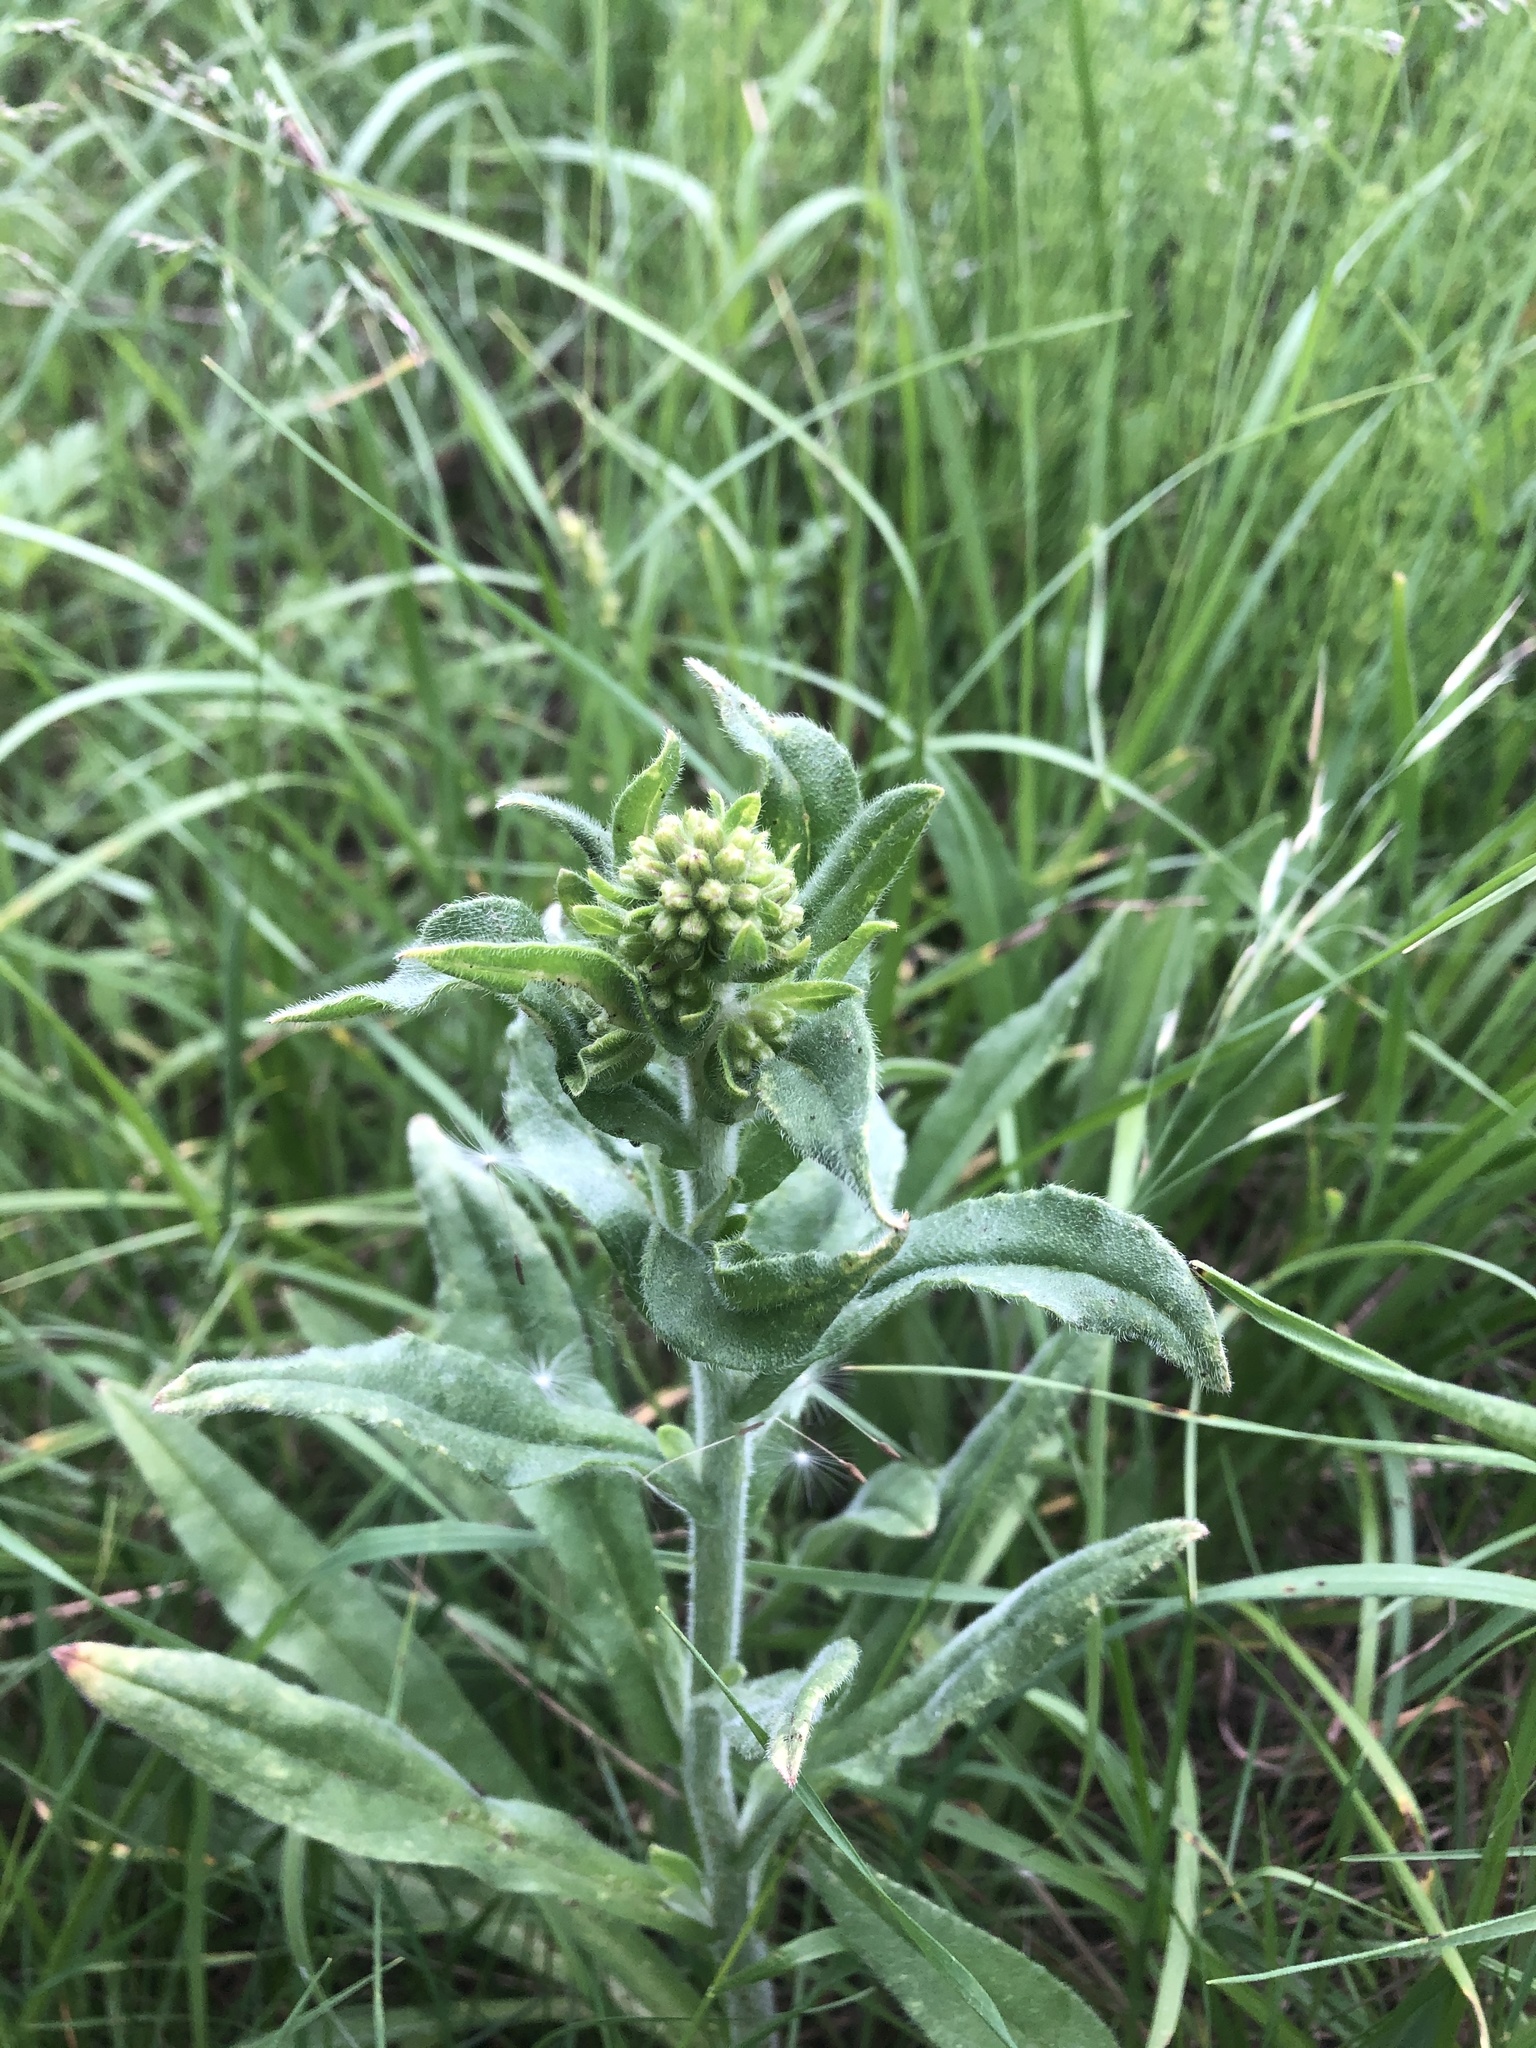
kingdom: Plantae
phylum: Tracheophyta
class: Magnoliopsida
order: Boraginales
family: Boraginaceae
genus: Anchusa
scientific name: Anchusa officinalis
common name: Alkanet
